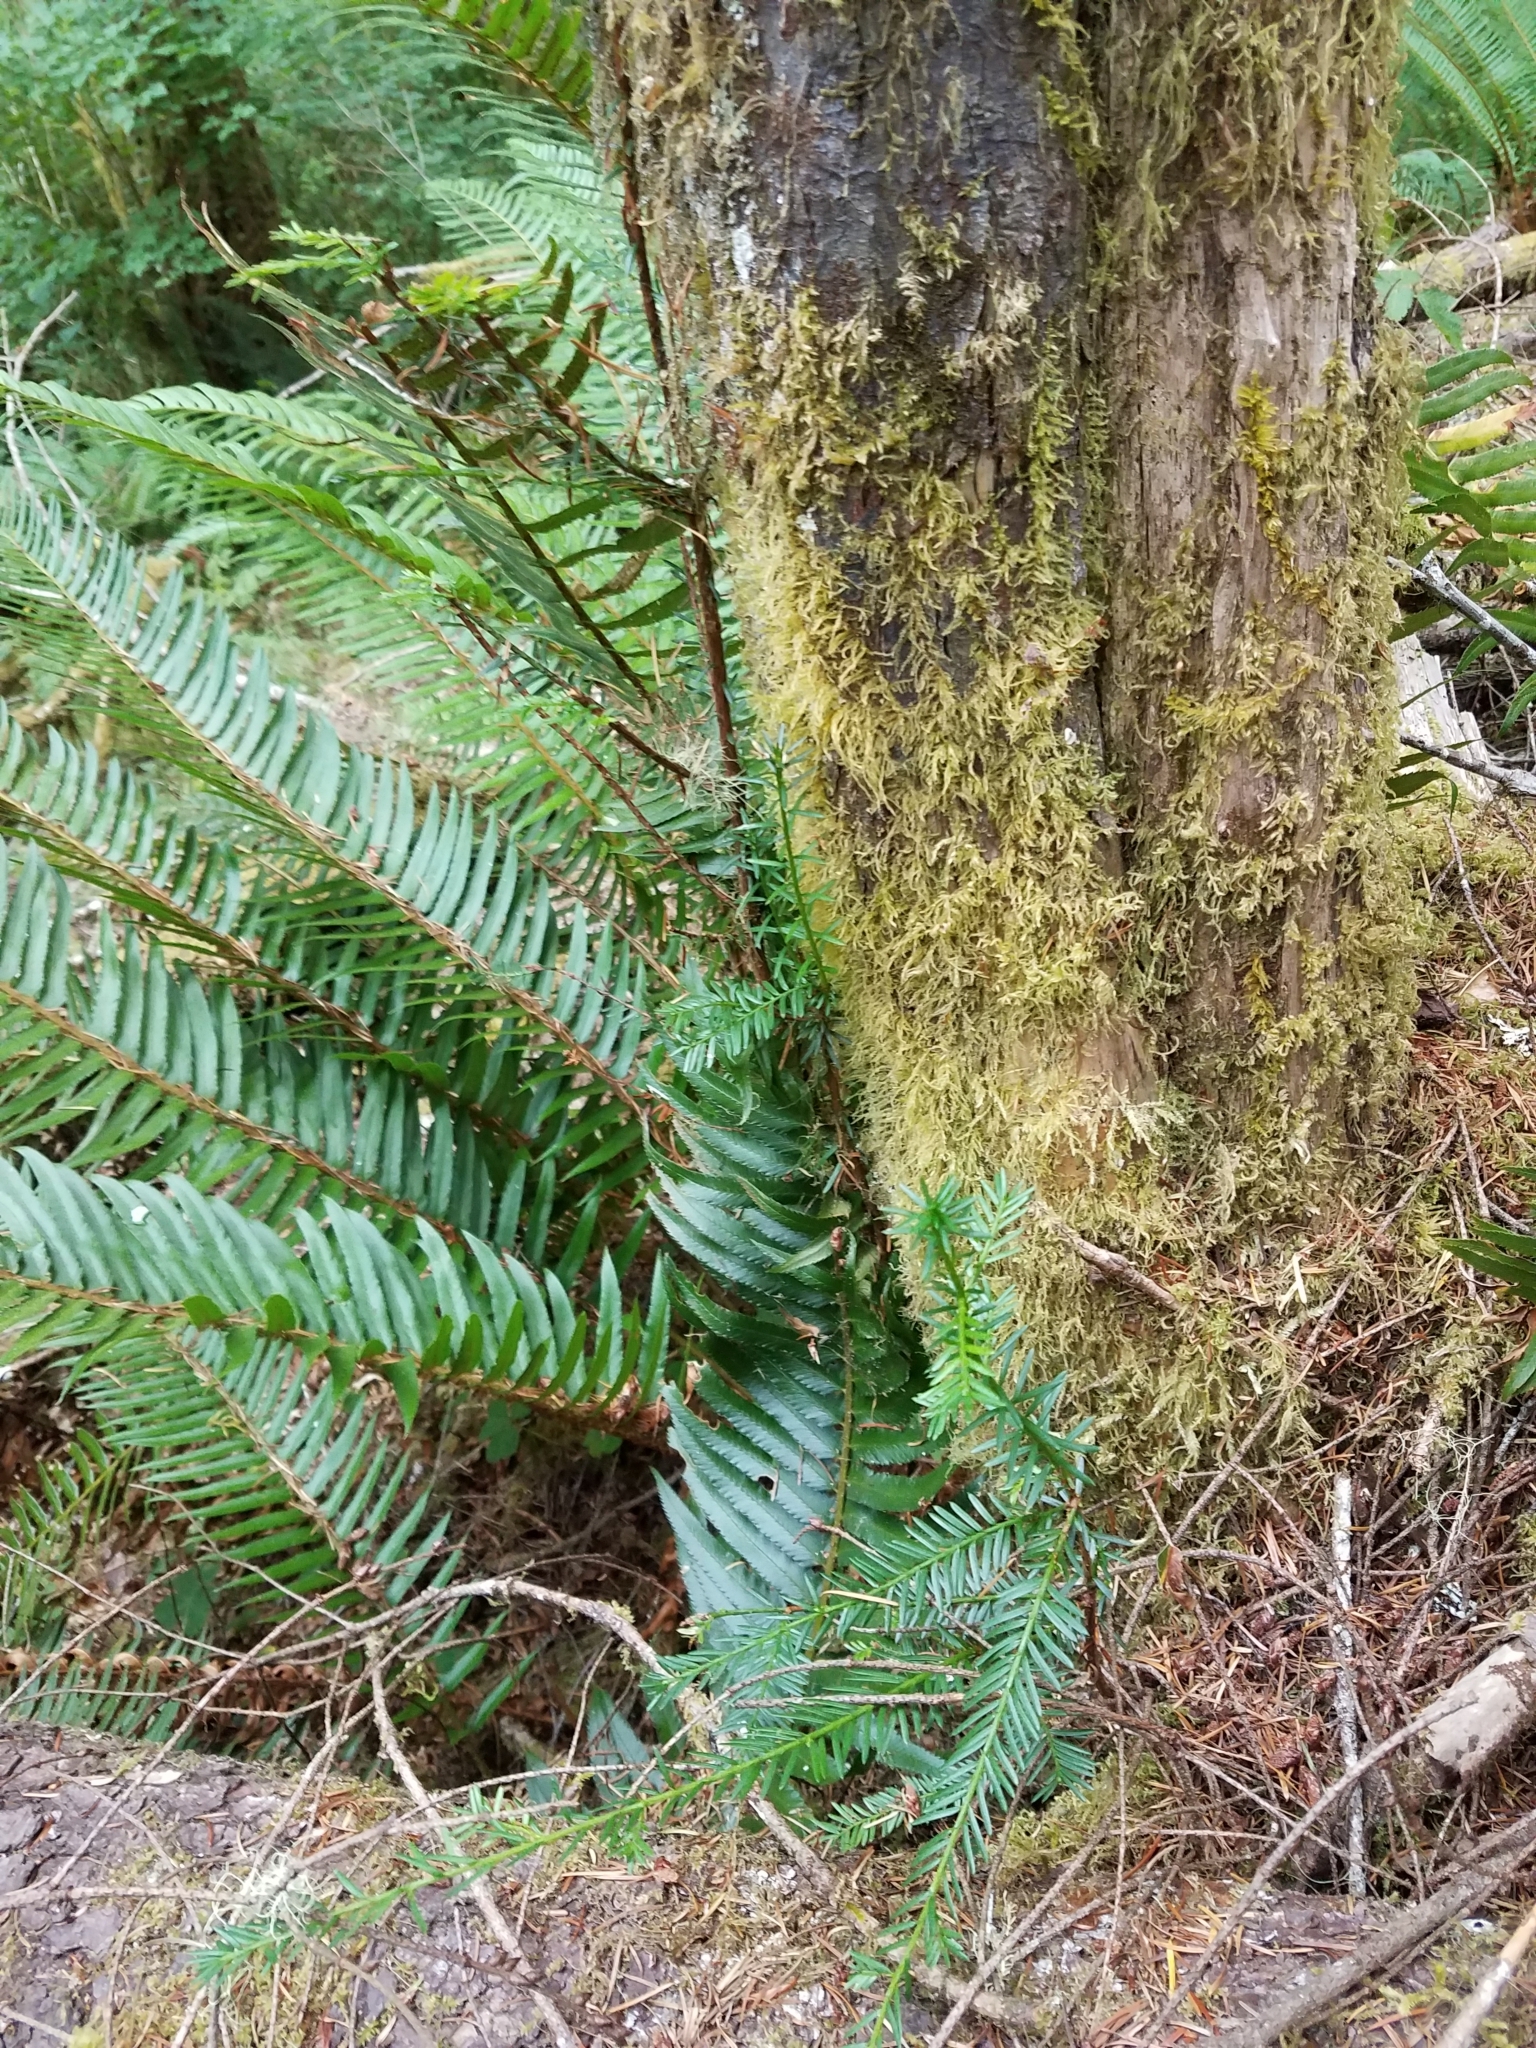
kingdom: Plantae
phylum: Tracheophyta
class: Pinopsida
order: Pinales
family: Taxaceae
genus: Taxus
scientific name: Taxus brevifolia
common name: Pacific yew
